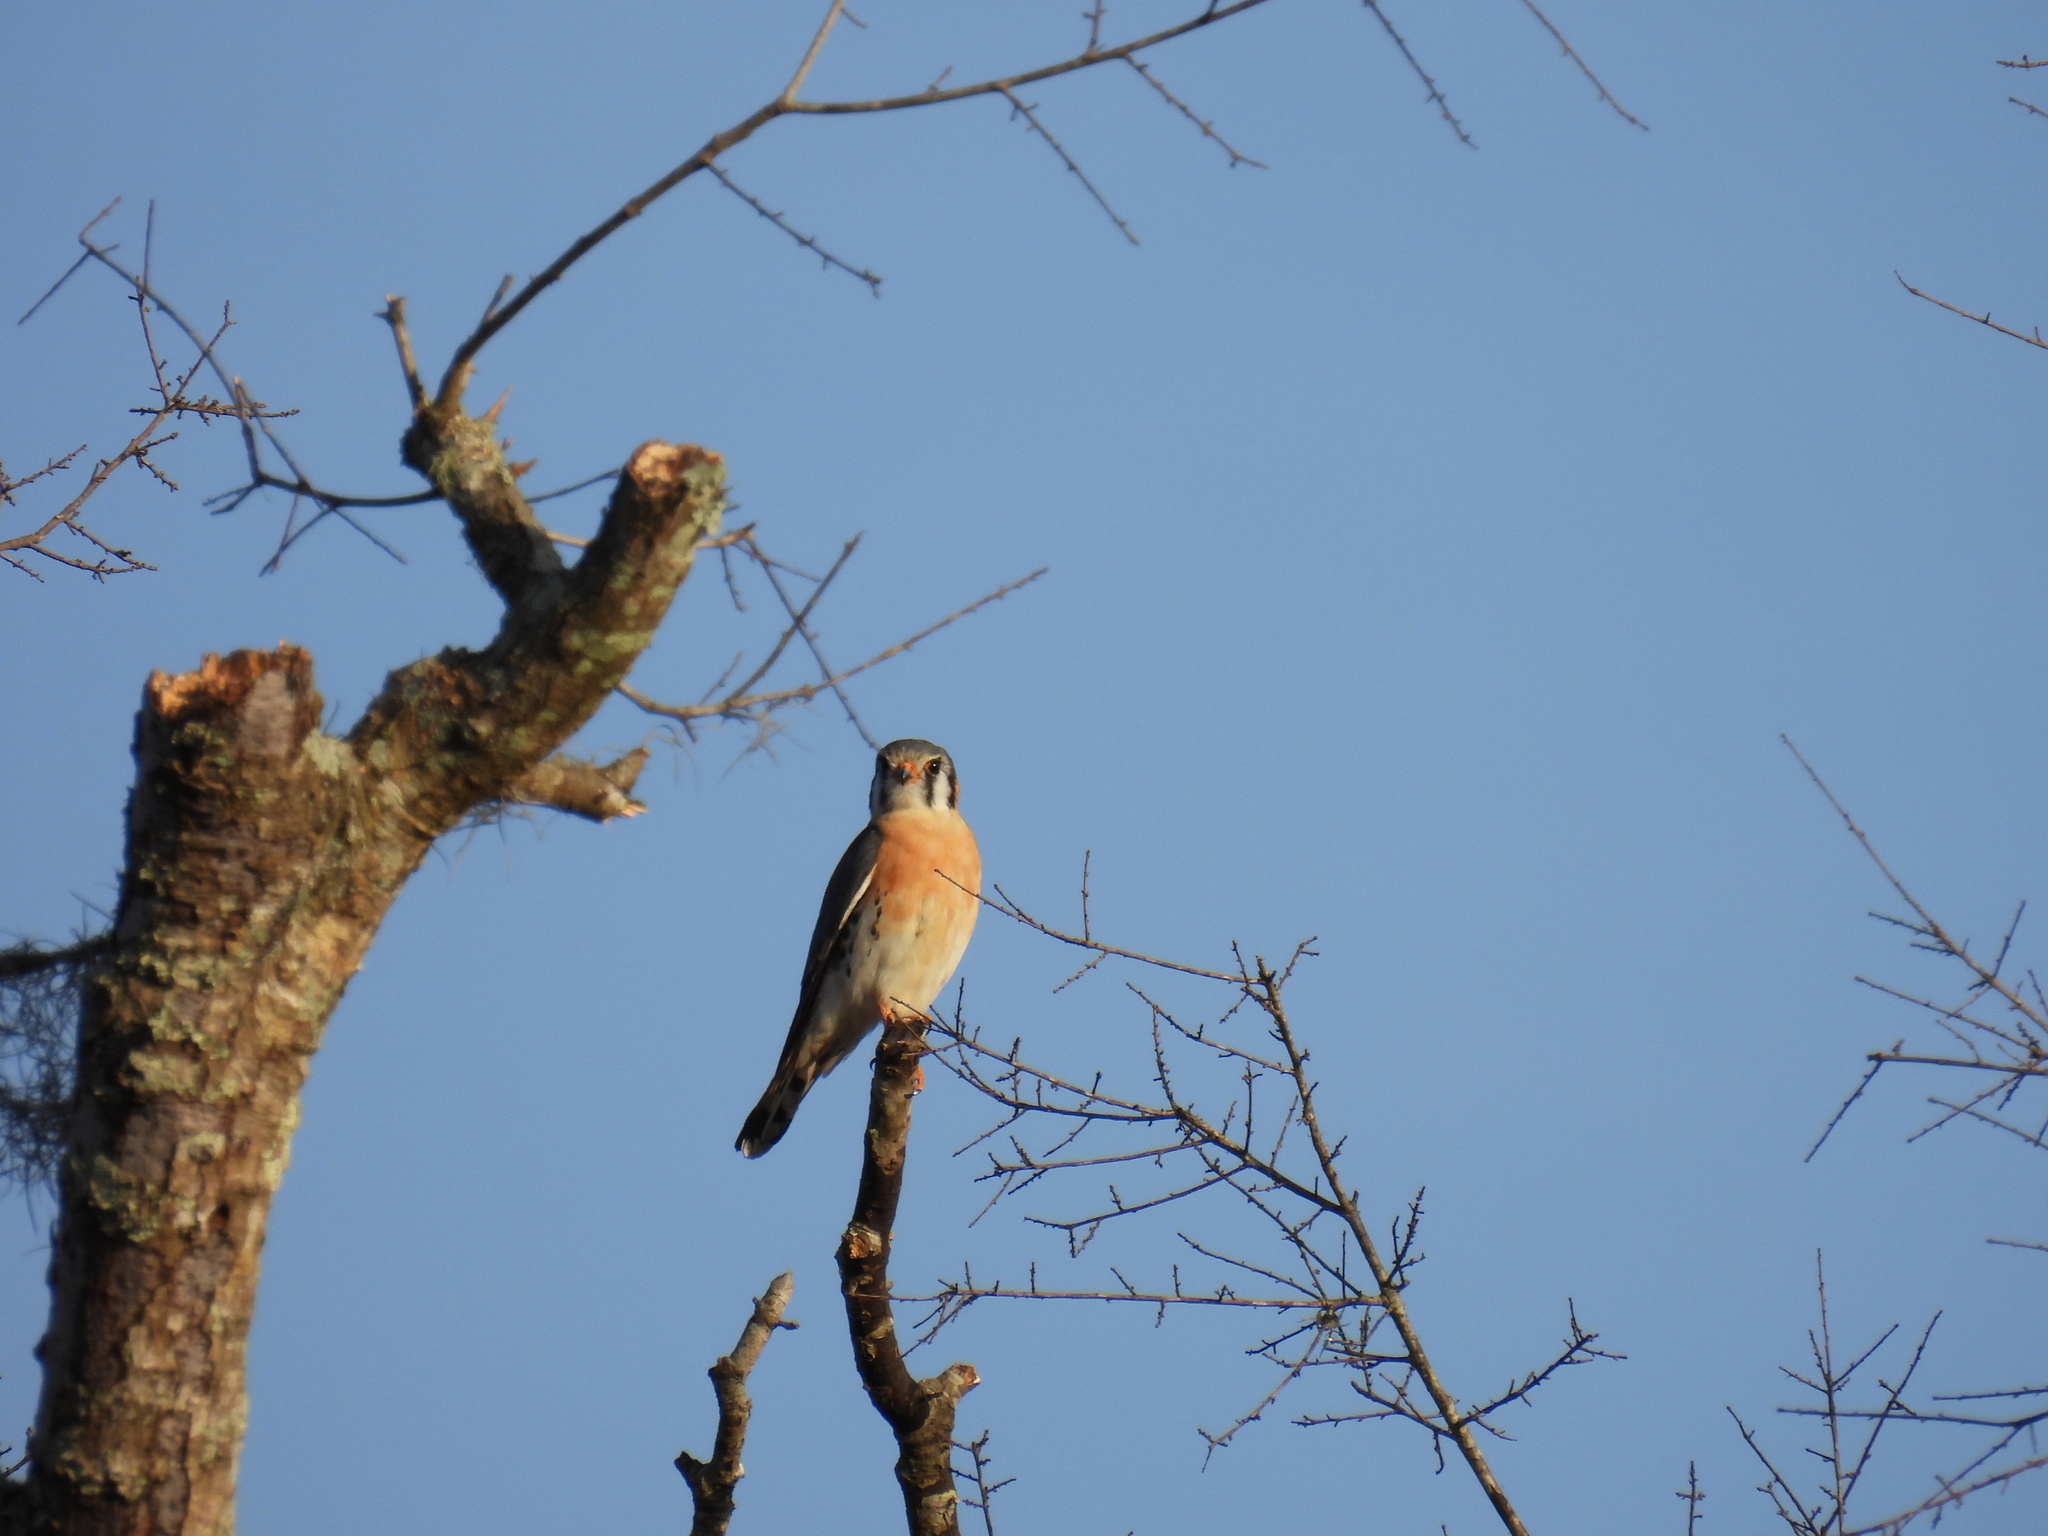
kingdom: Animalia
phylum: Chordata
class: Aves
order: Falconiformes
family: Falconidae
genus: Falco
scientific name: Falco sparverius
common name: American kestrel
